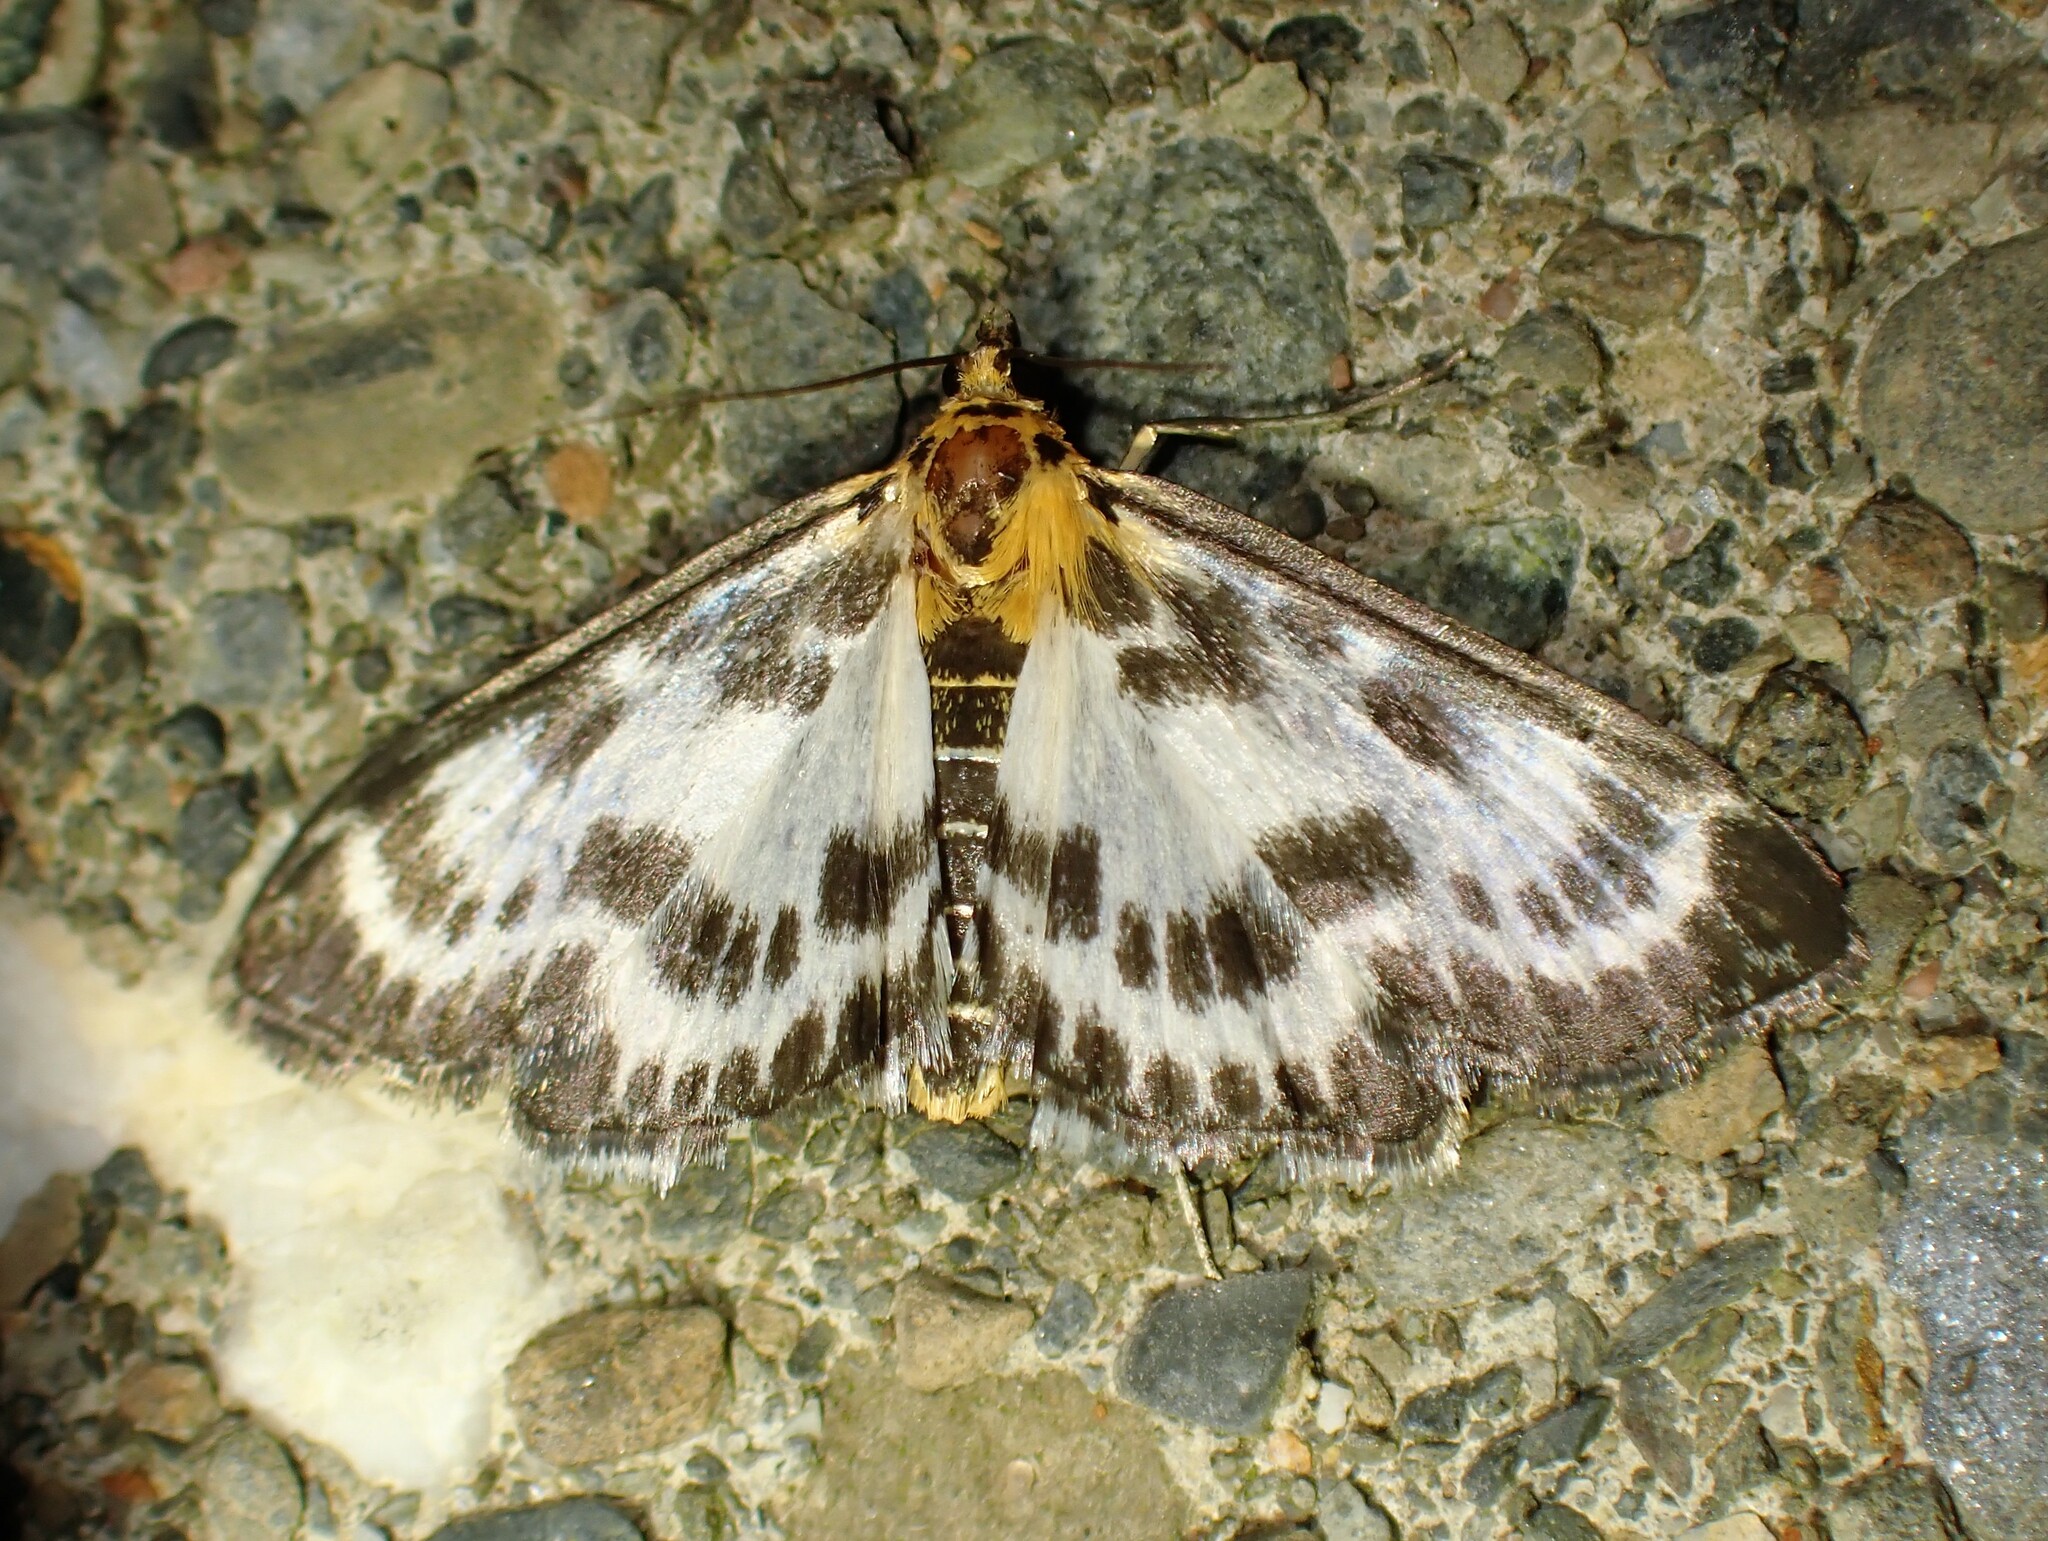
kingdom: Animalia
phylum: Arthropoda
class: Insecta
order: Lepidoptera
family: Crambidae
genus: Anania
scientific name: Anania hortulata
